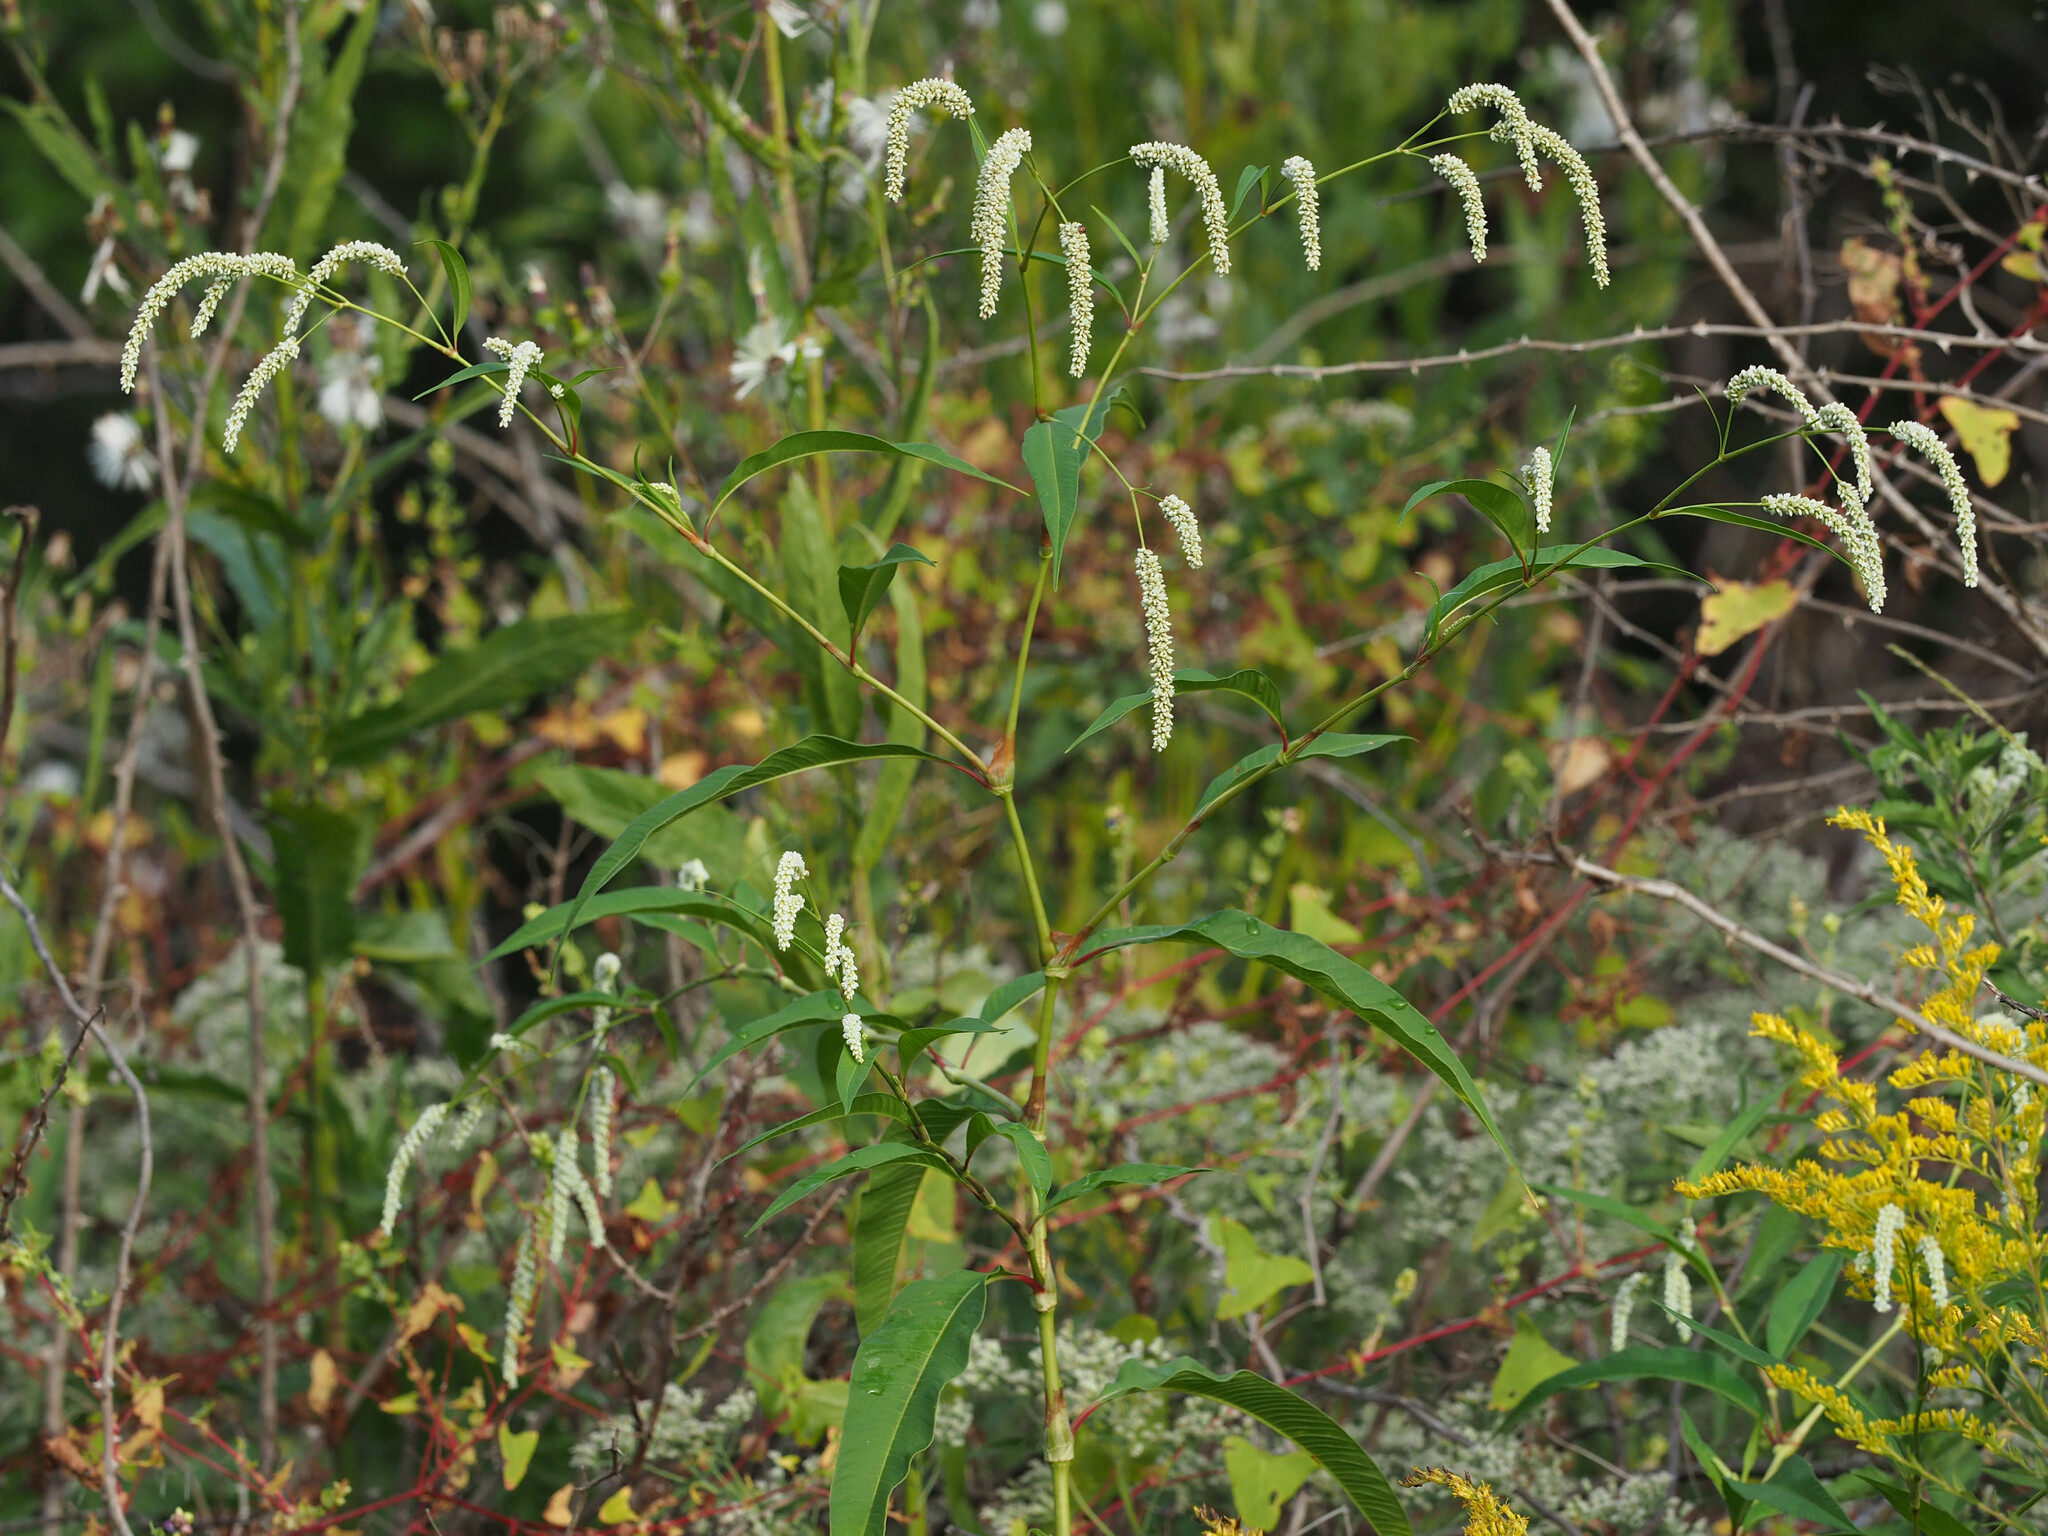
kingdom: Plantae
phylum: Tracheophyta
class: Magnoliopsida
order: Caryophyllales
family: Polygonaceae
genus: Persicaria
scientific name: Persicaria lapathifolia
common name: Curlytop knotweed
